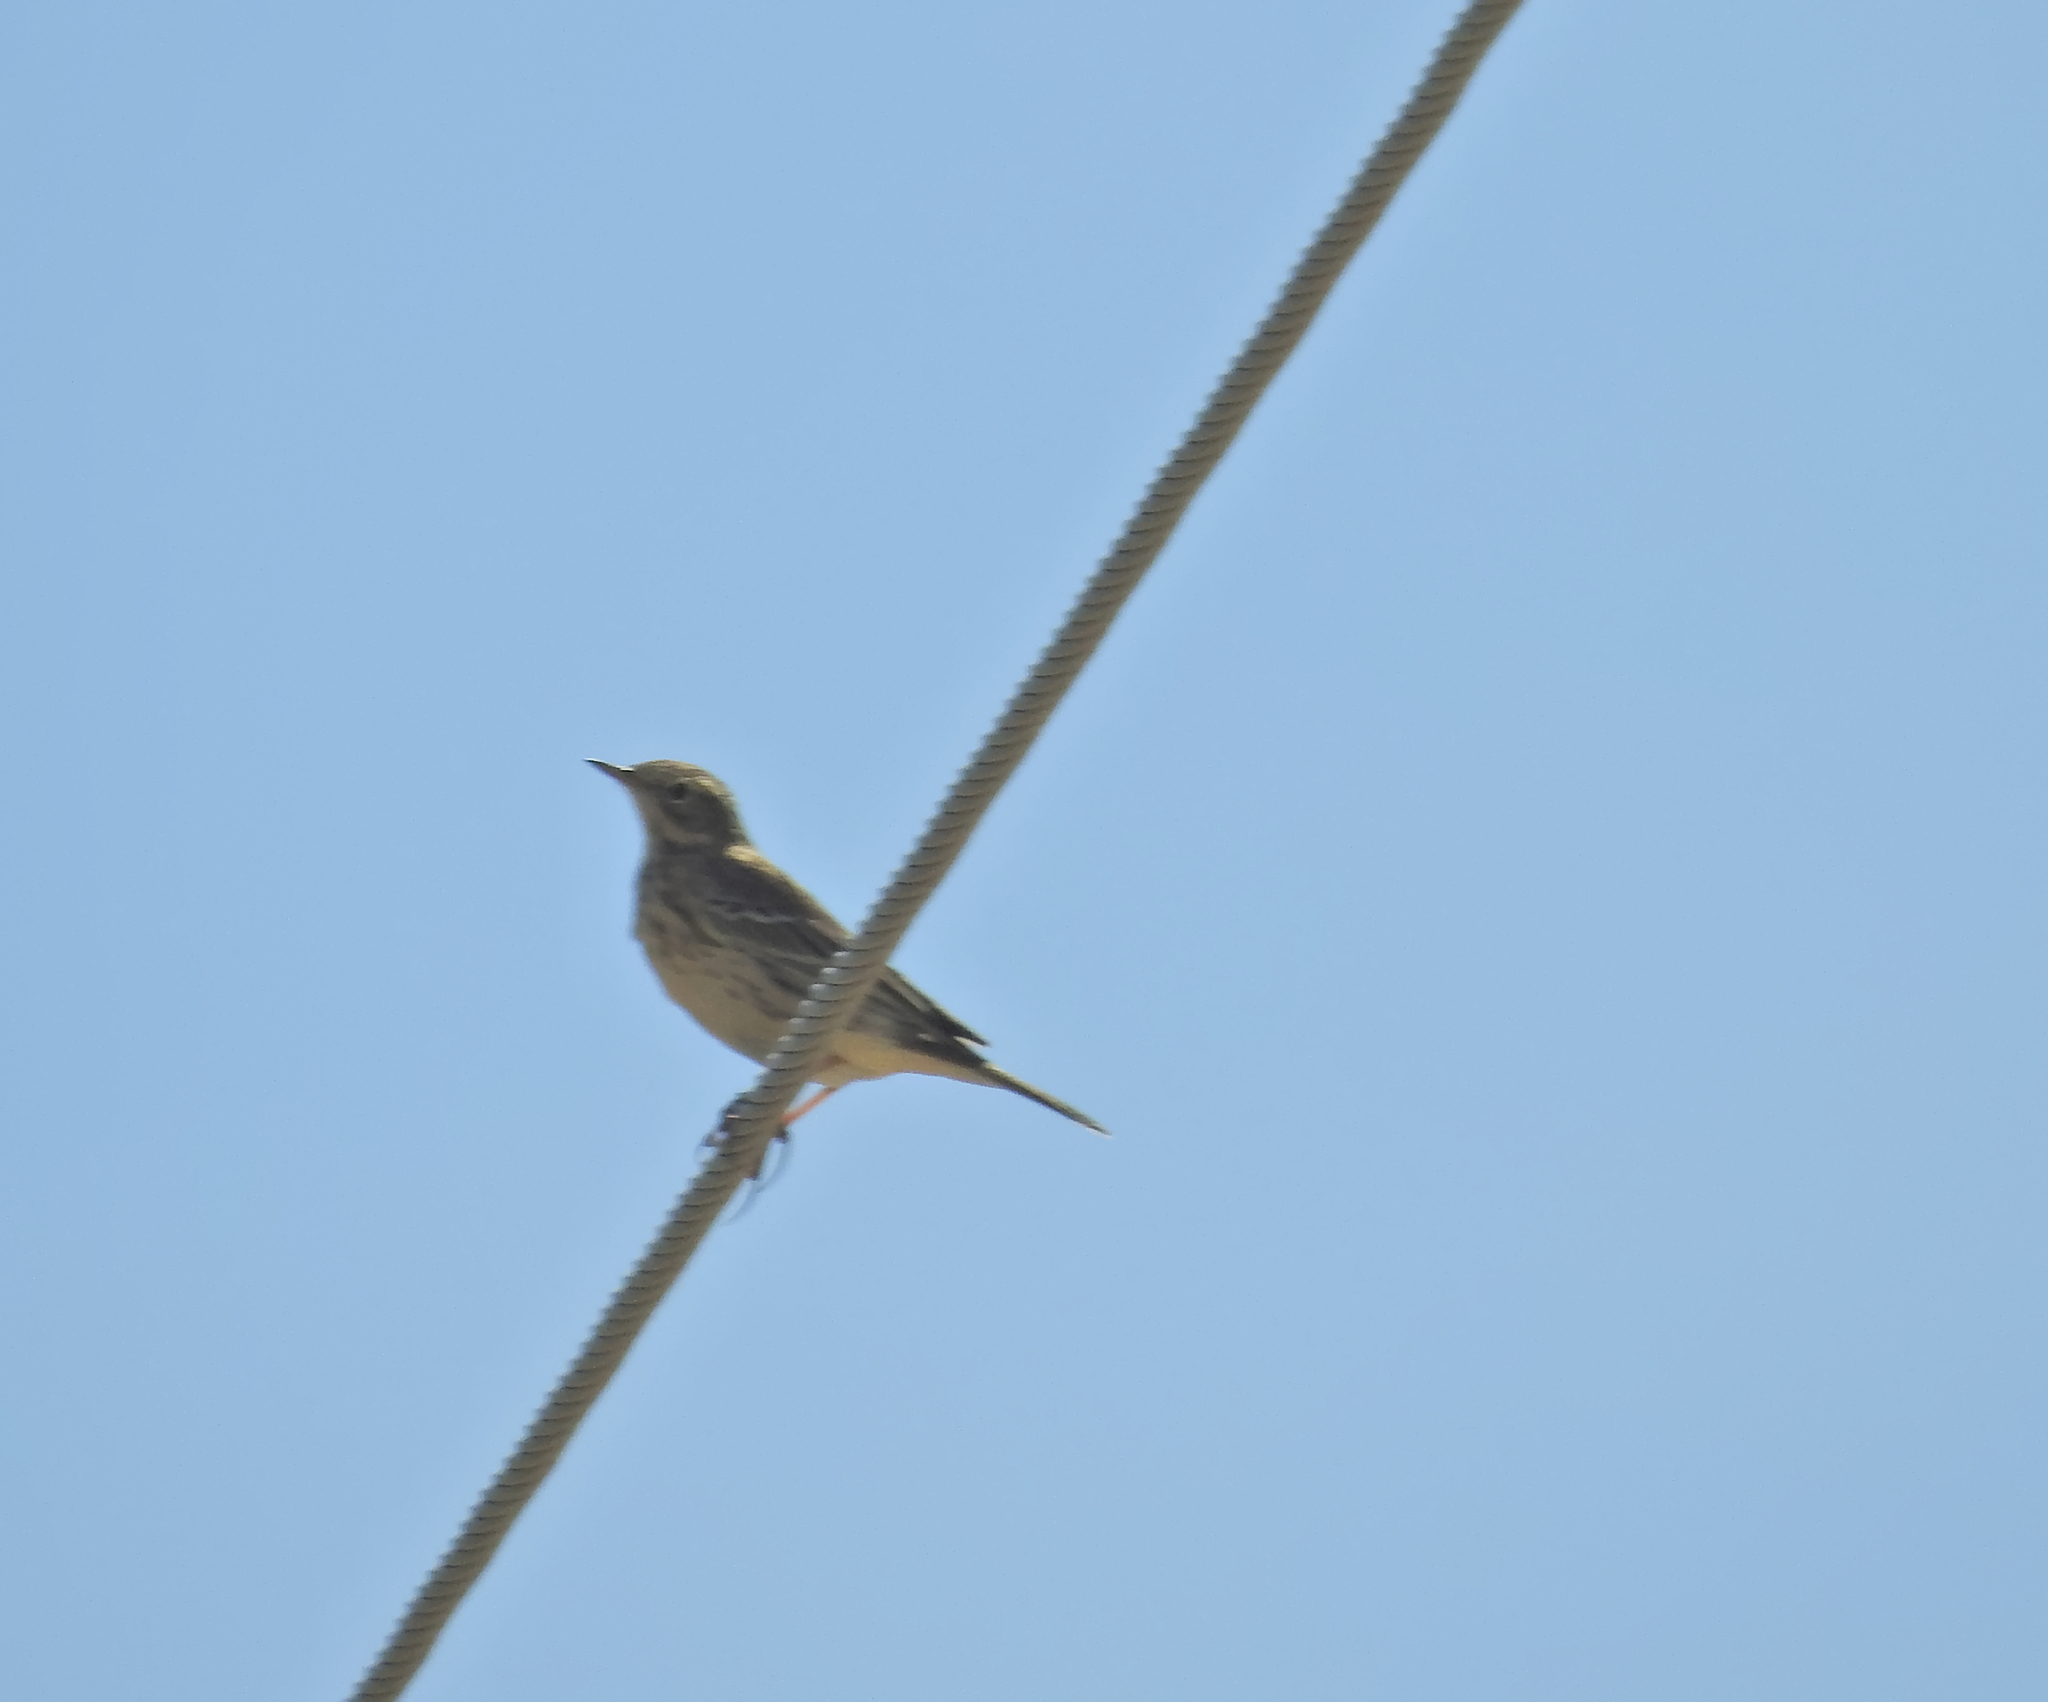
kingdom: Animalia
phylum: Chordata
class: Aves
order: Passeriformes
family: Motacillidae
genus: Anthus
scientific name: Anthus pratensis
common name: Meadow pipit
